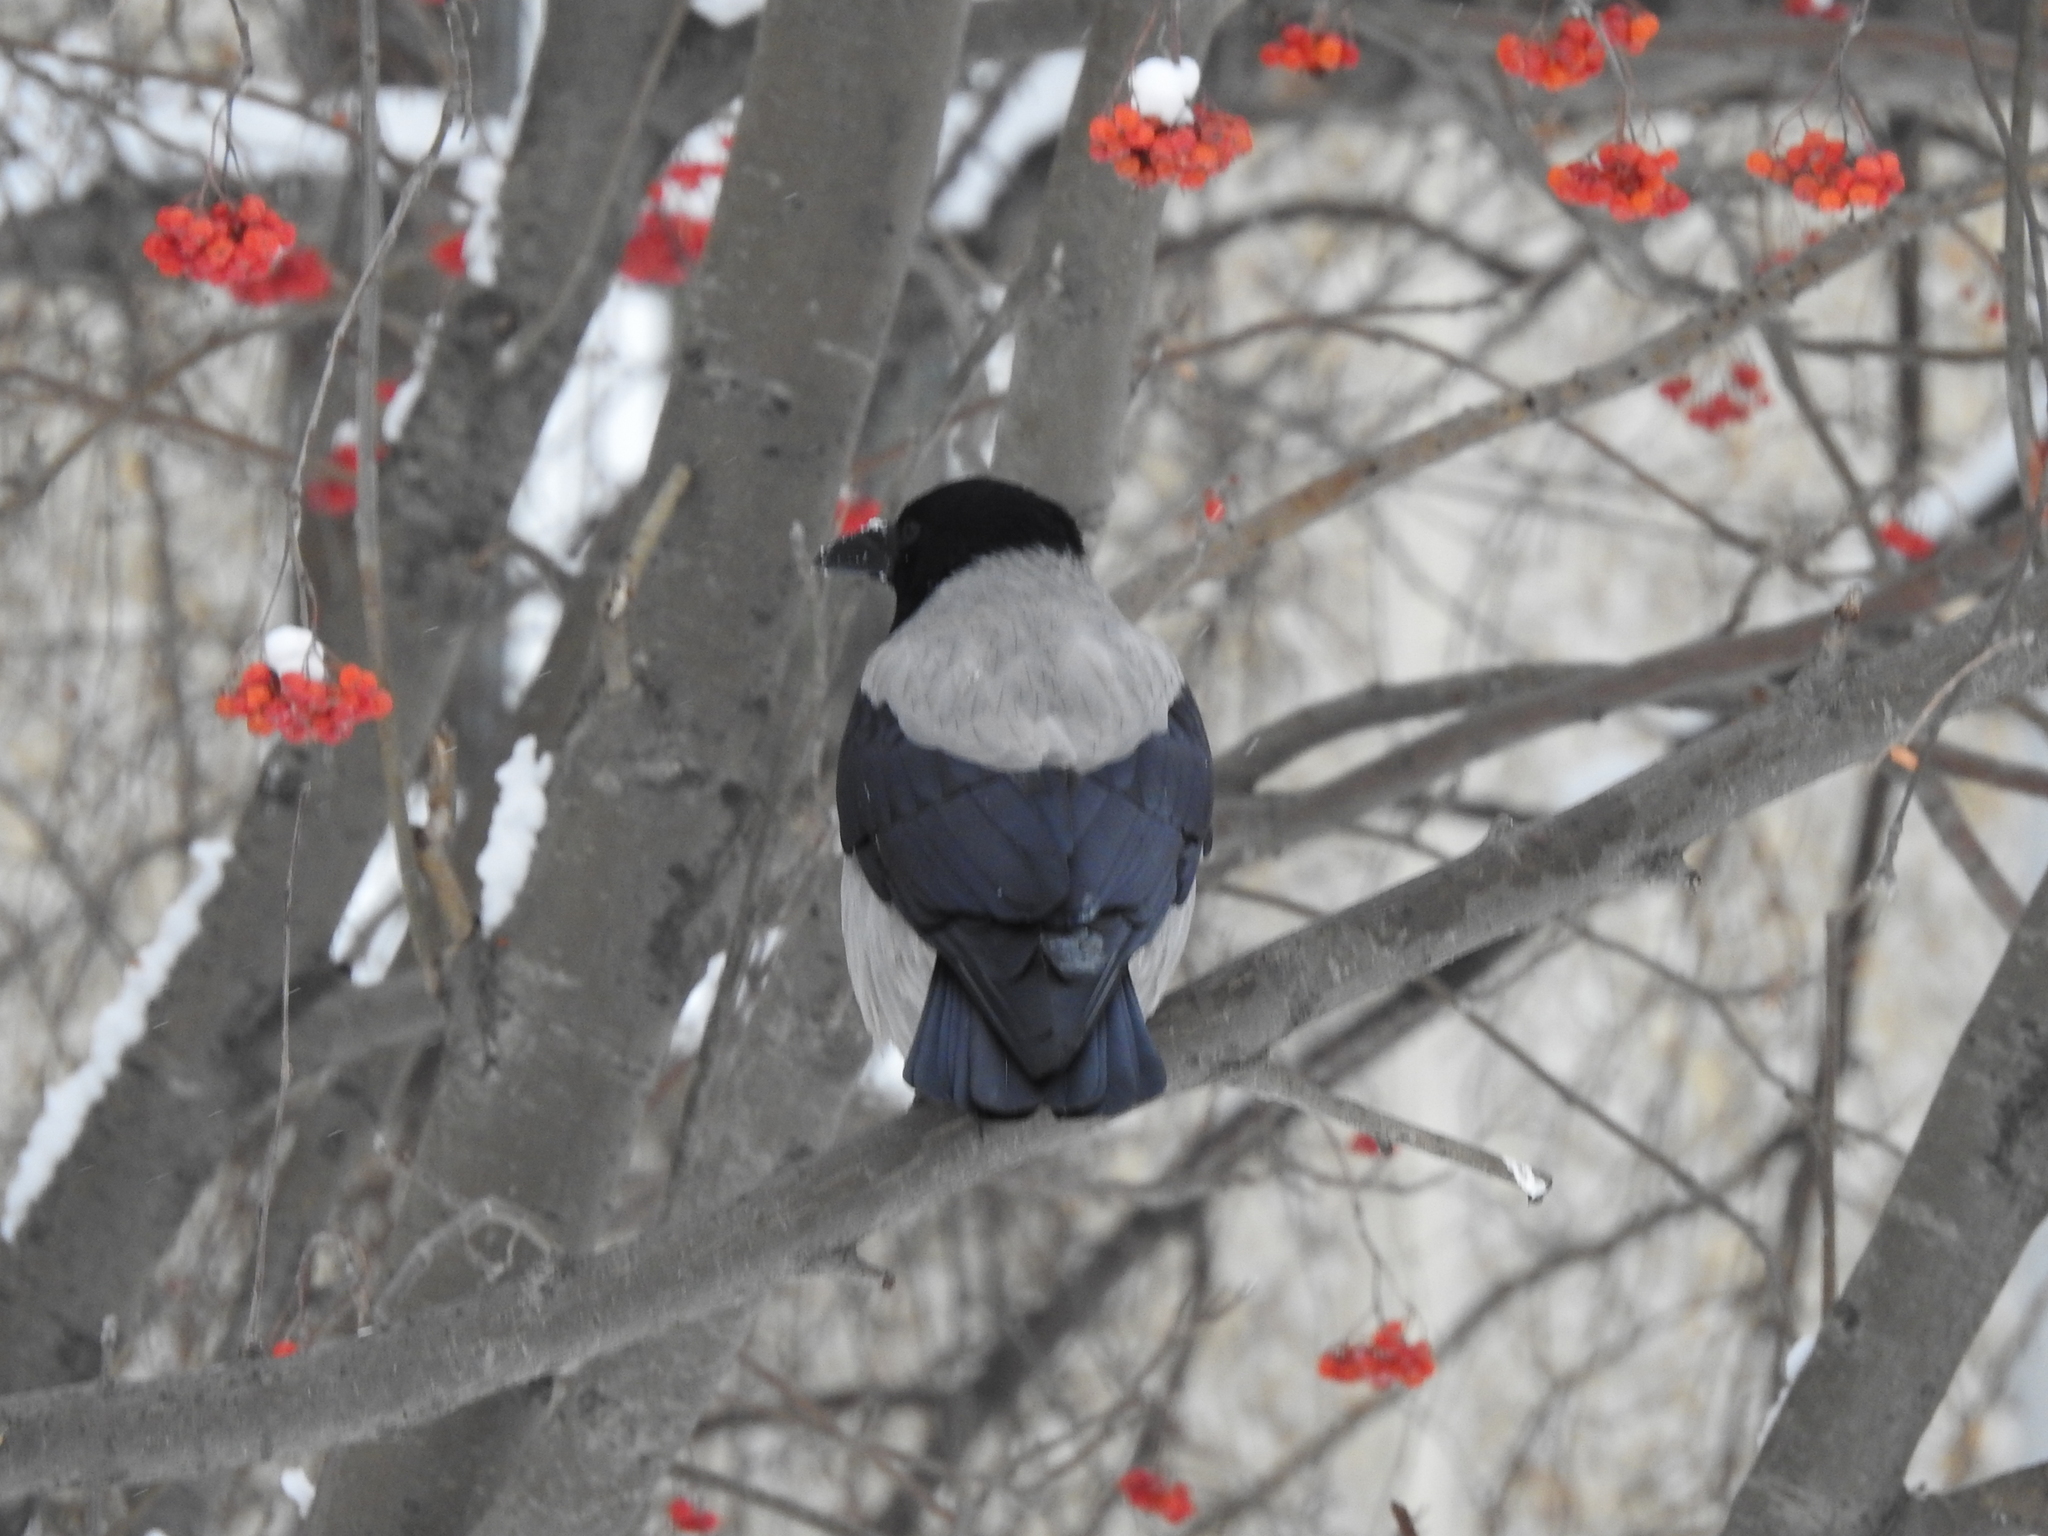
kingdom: Animalia
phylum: Chordata
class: Aves
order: Passeriformes
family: Corvidae
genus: Corvus
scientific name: Corvus cornix
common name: Hooded crow
